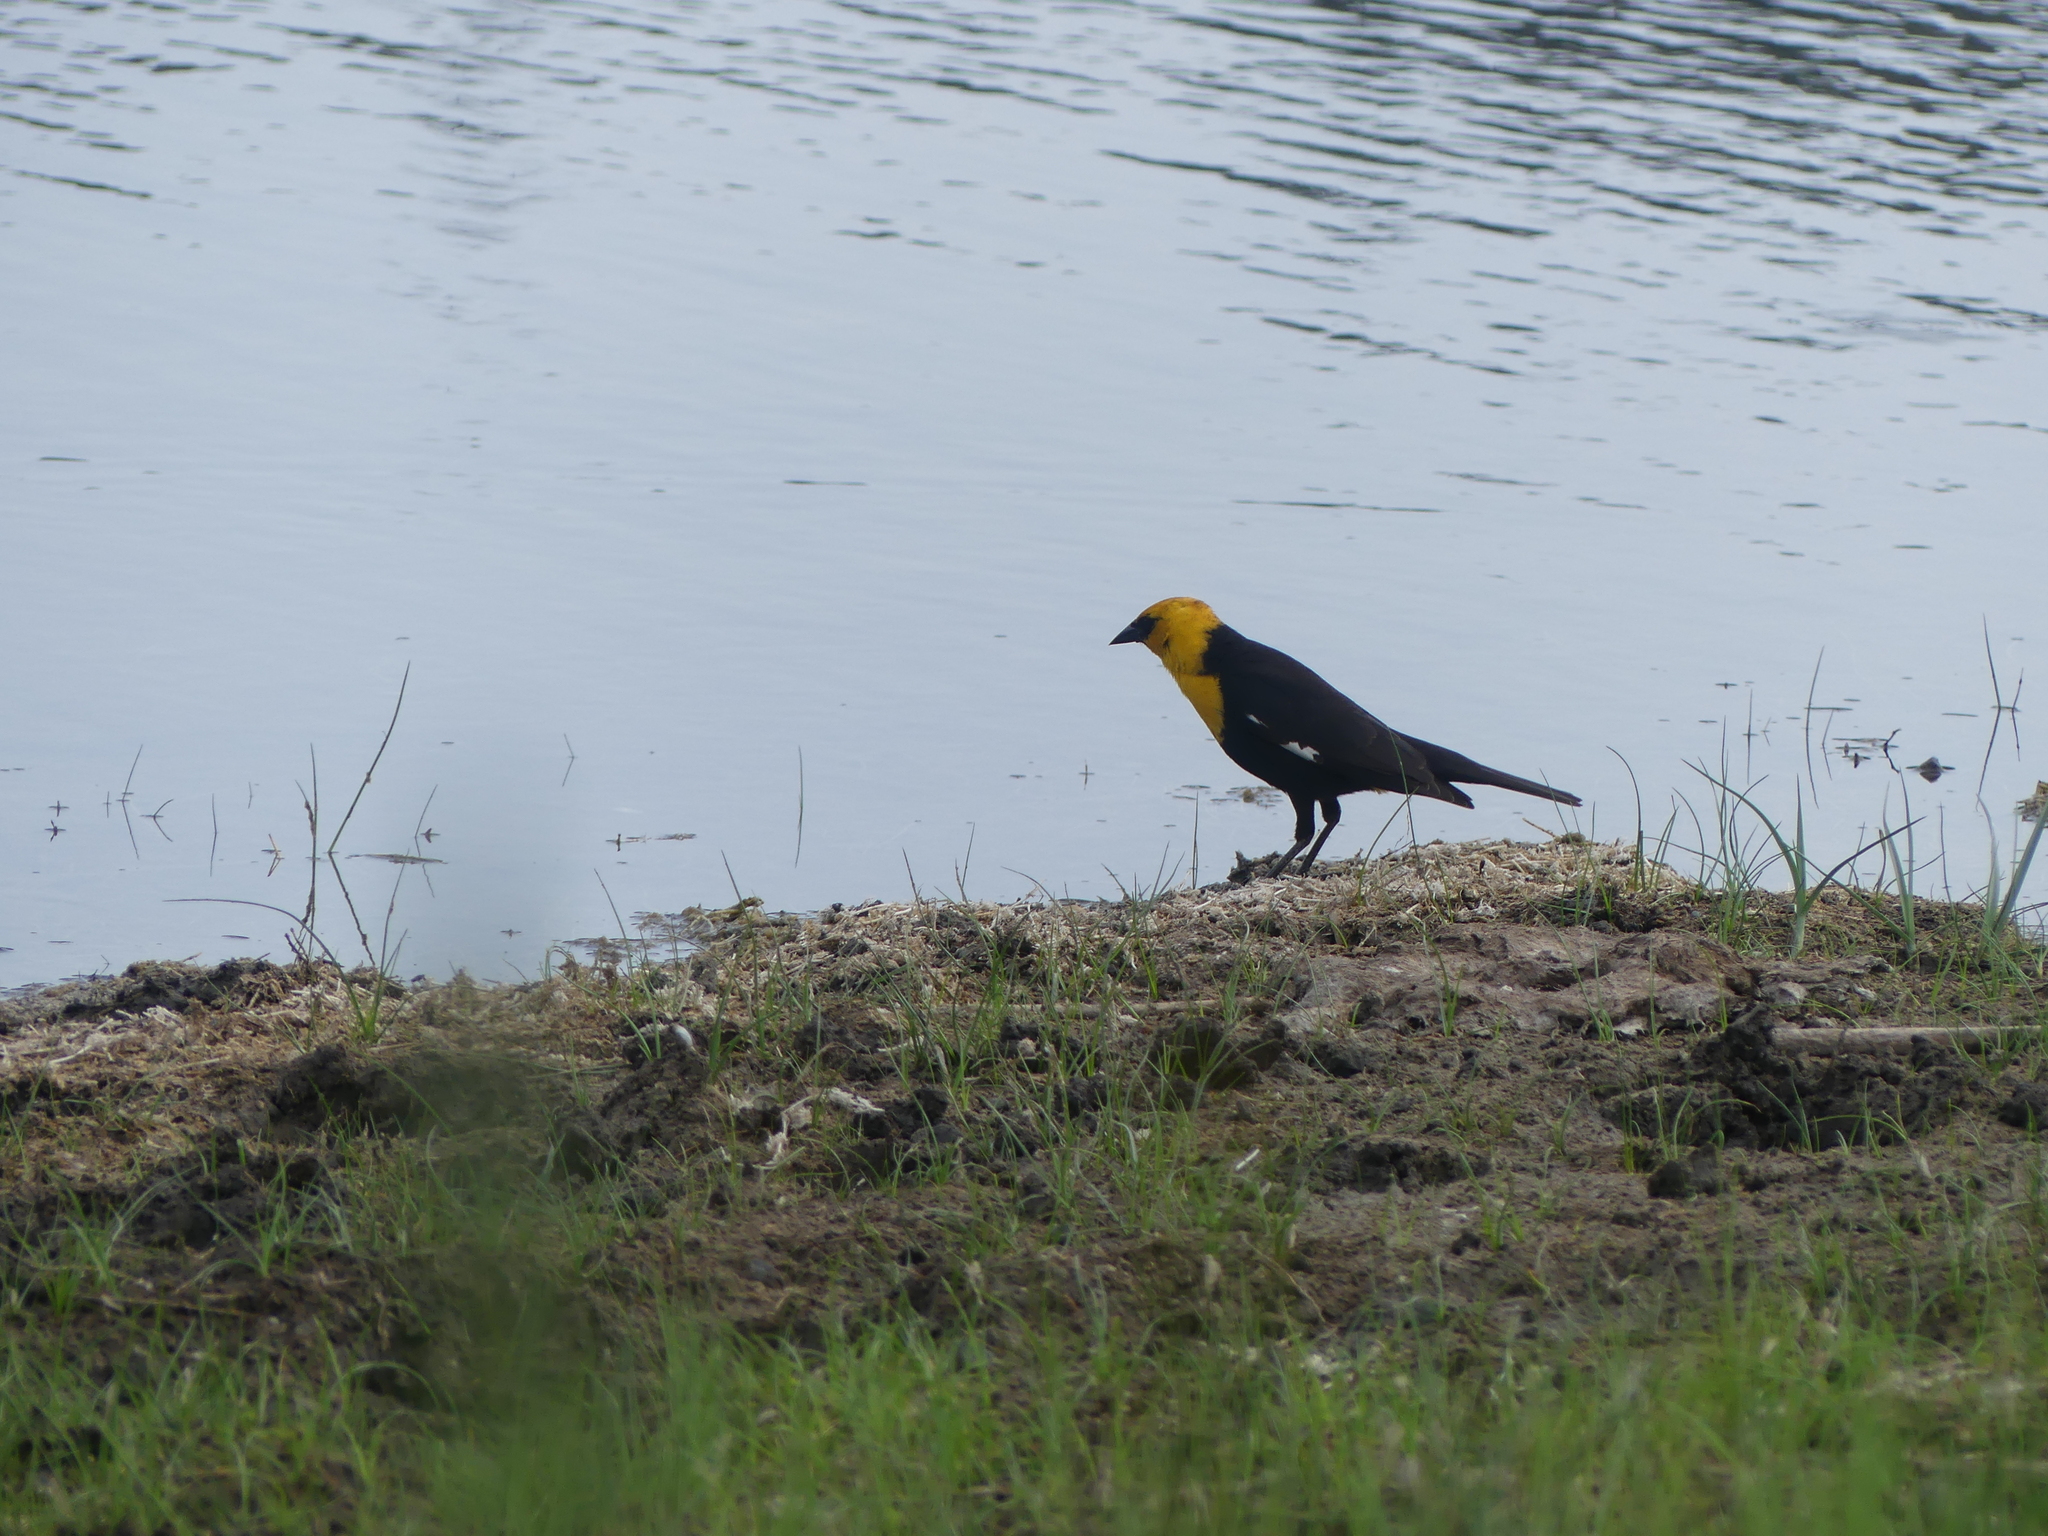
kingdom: Animalia
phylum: Chordata
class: Aves
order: Passeriformes
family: Icteridae
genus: Xanthocephalus
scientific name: Xanthocephalus xanthocephalus
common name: Yellow-headed blackbird
